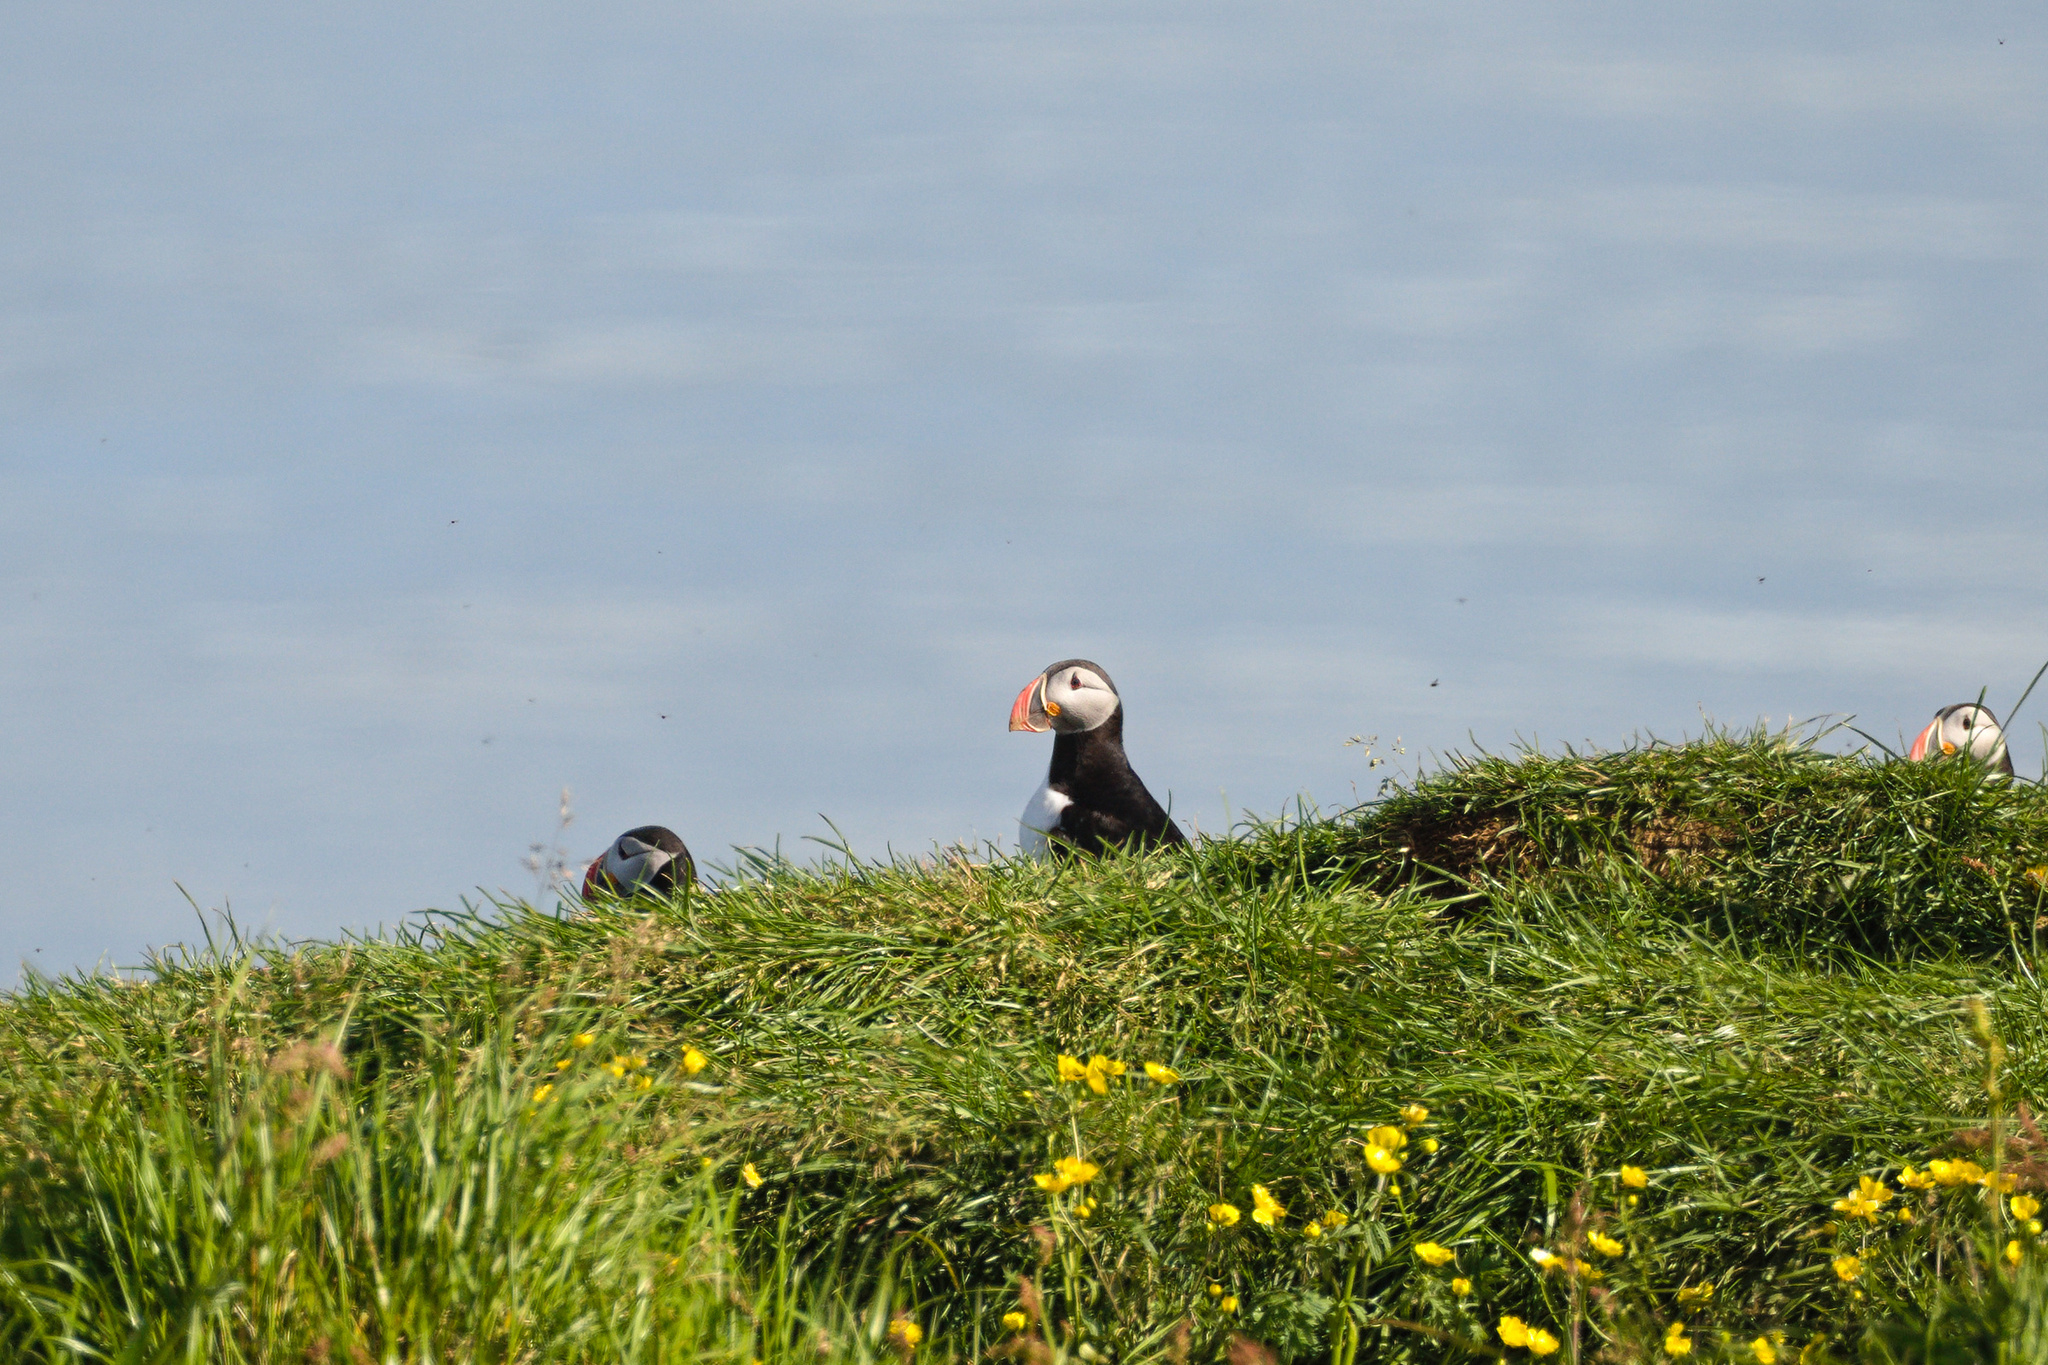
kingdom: Animalia
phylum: Chordata
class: Aves
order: Charadriiformes
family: Alcidae
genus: Fratercula
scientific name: Fratercula arctica
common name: Atlantic puffin
